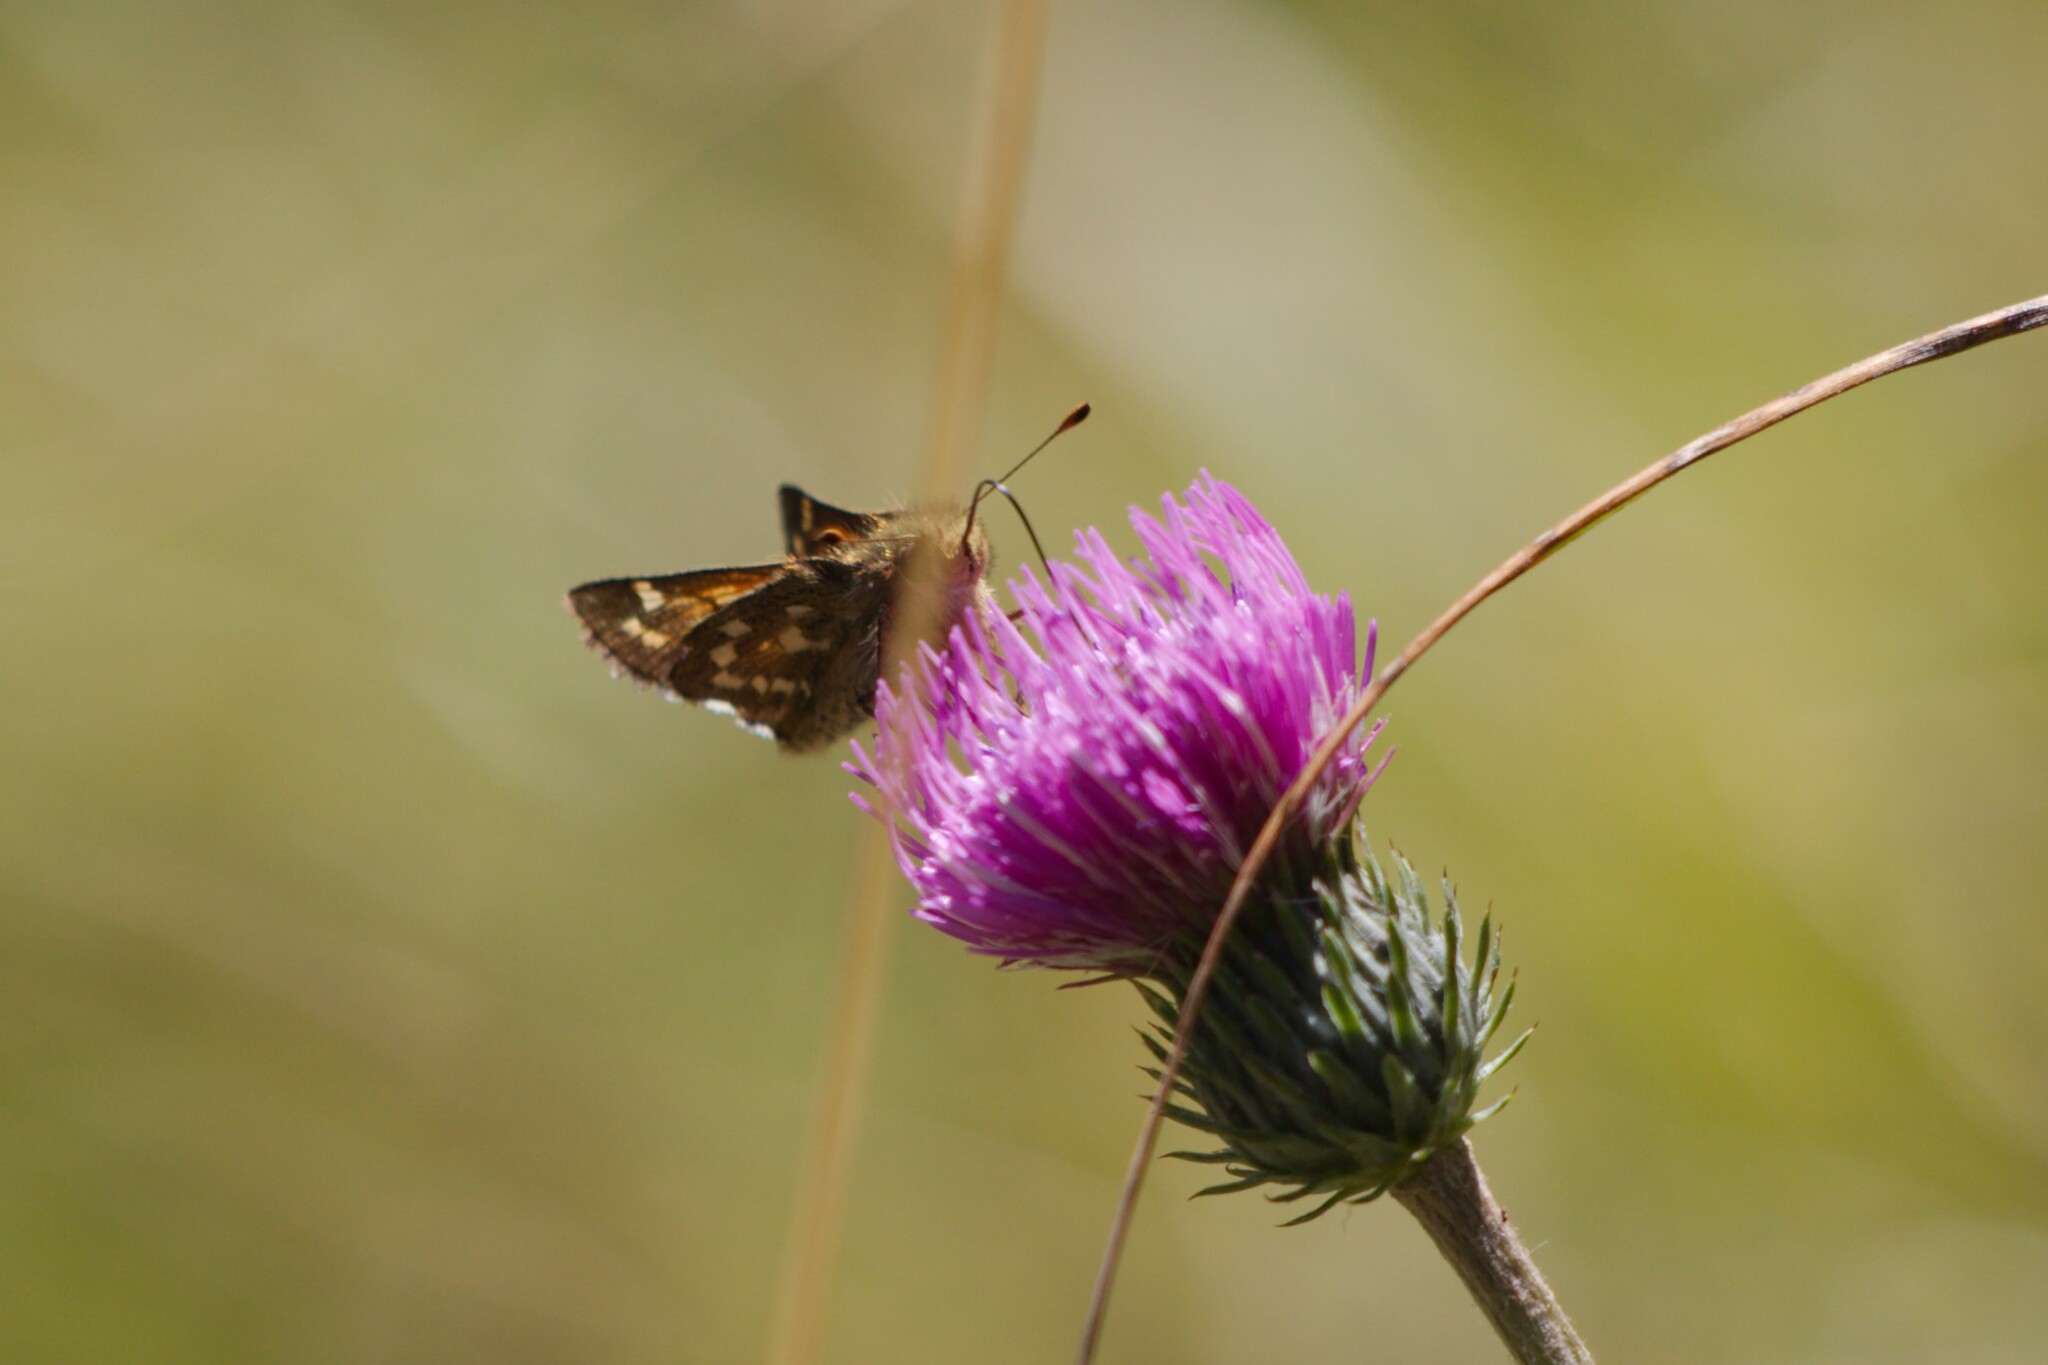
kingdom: Animalia
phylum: Arthropoda
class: Insecta
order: Lepidoptera
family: Hesperiidae
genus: Hesperia
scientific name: Hesperia comma
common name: Common branded skipper
